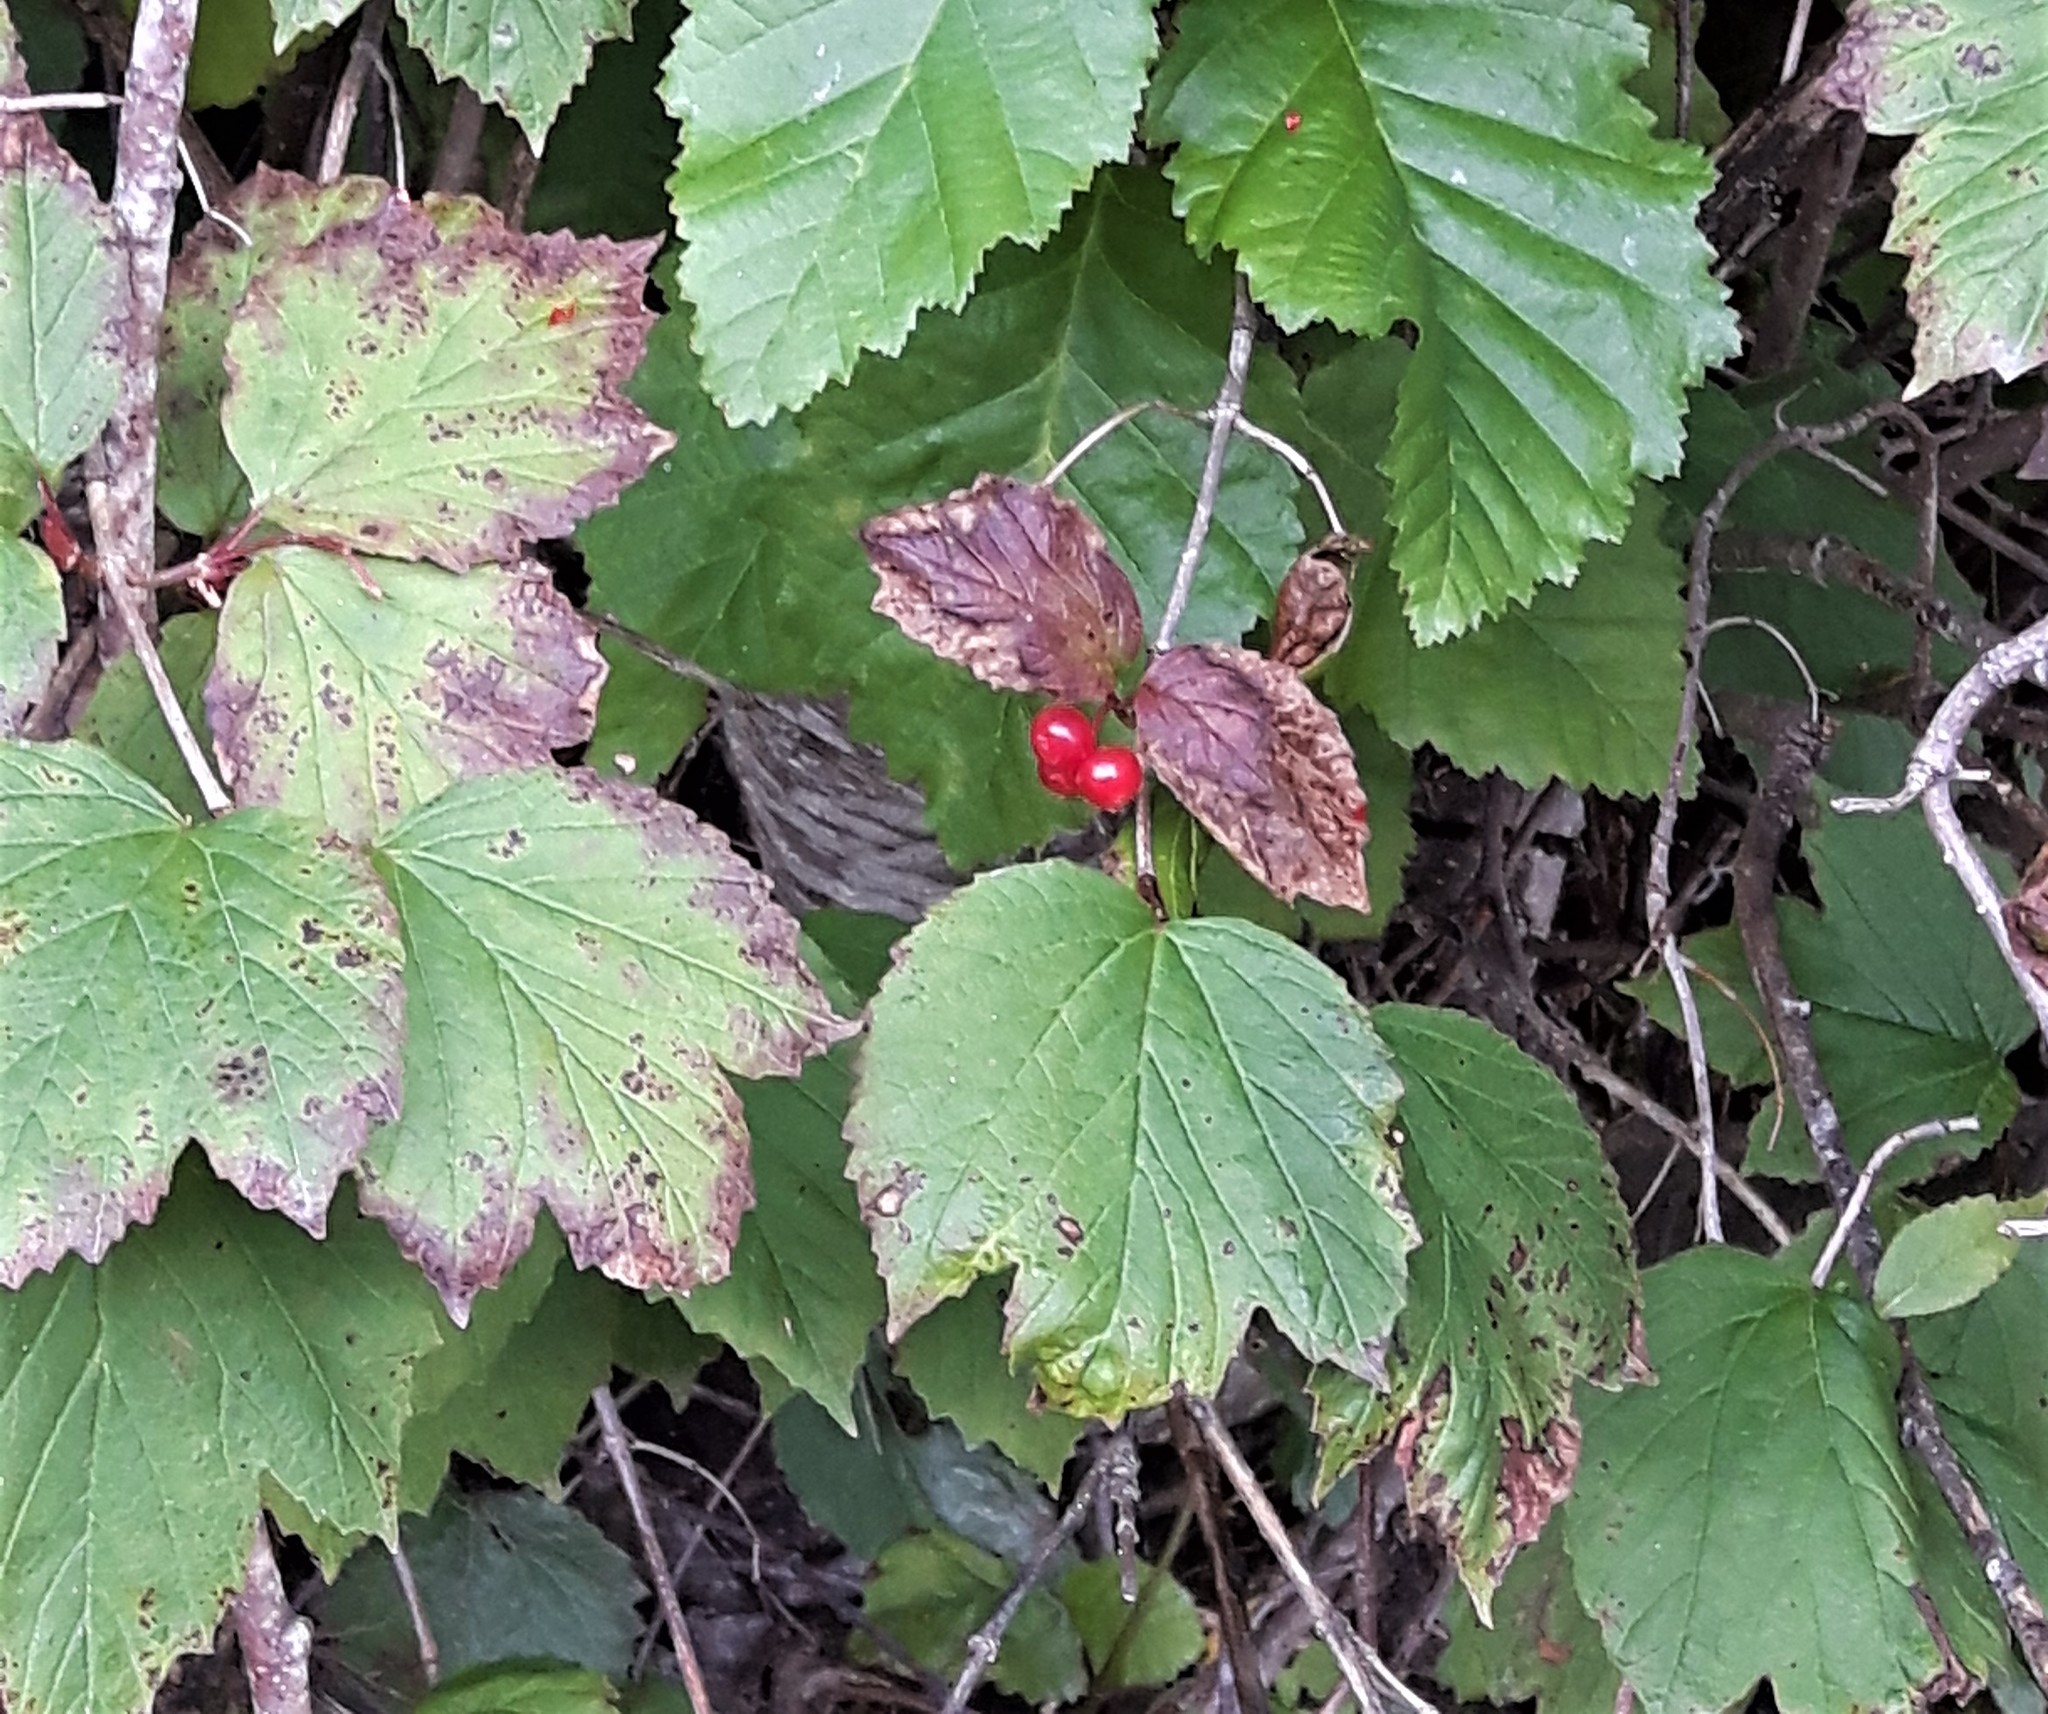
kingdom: Plantae
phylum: Tracheophyta
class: Magnoliopsida
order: Dipsacales
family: Viburnaceae
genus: Viburnum
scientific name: Viburnum edule
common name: Mooseberry
